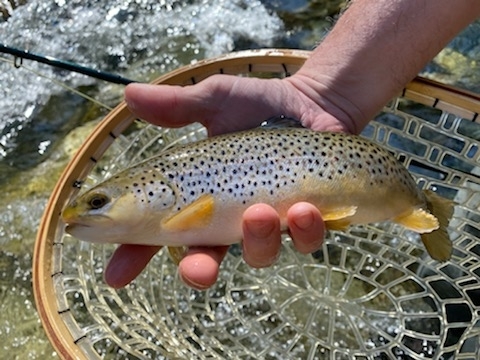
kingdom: Animalia
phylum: Chordata
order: Salmoniformes
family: Salmonidae
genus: Salmo
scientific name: Salmo trutta
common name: Brown trout
